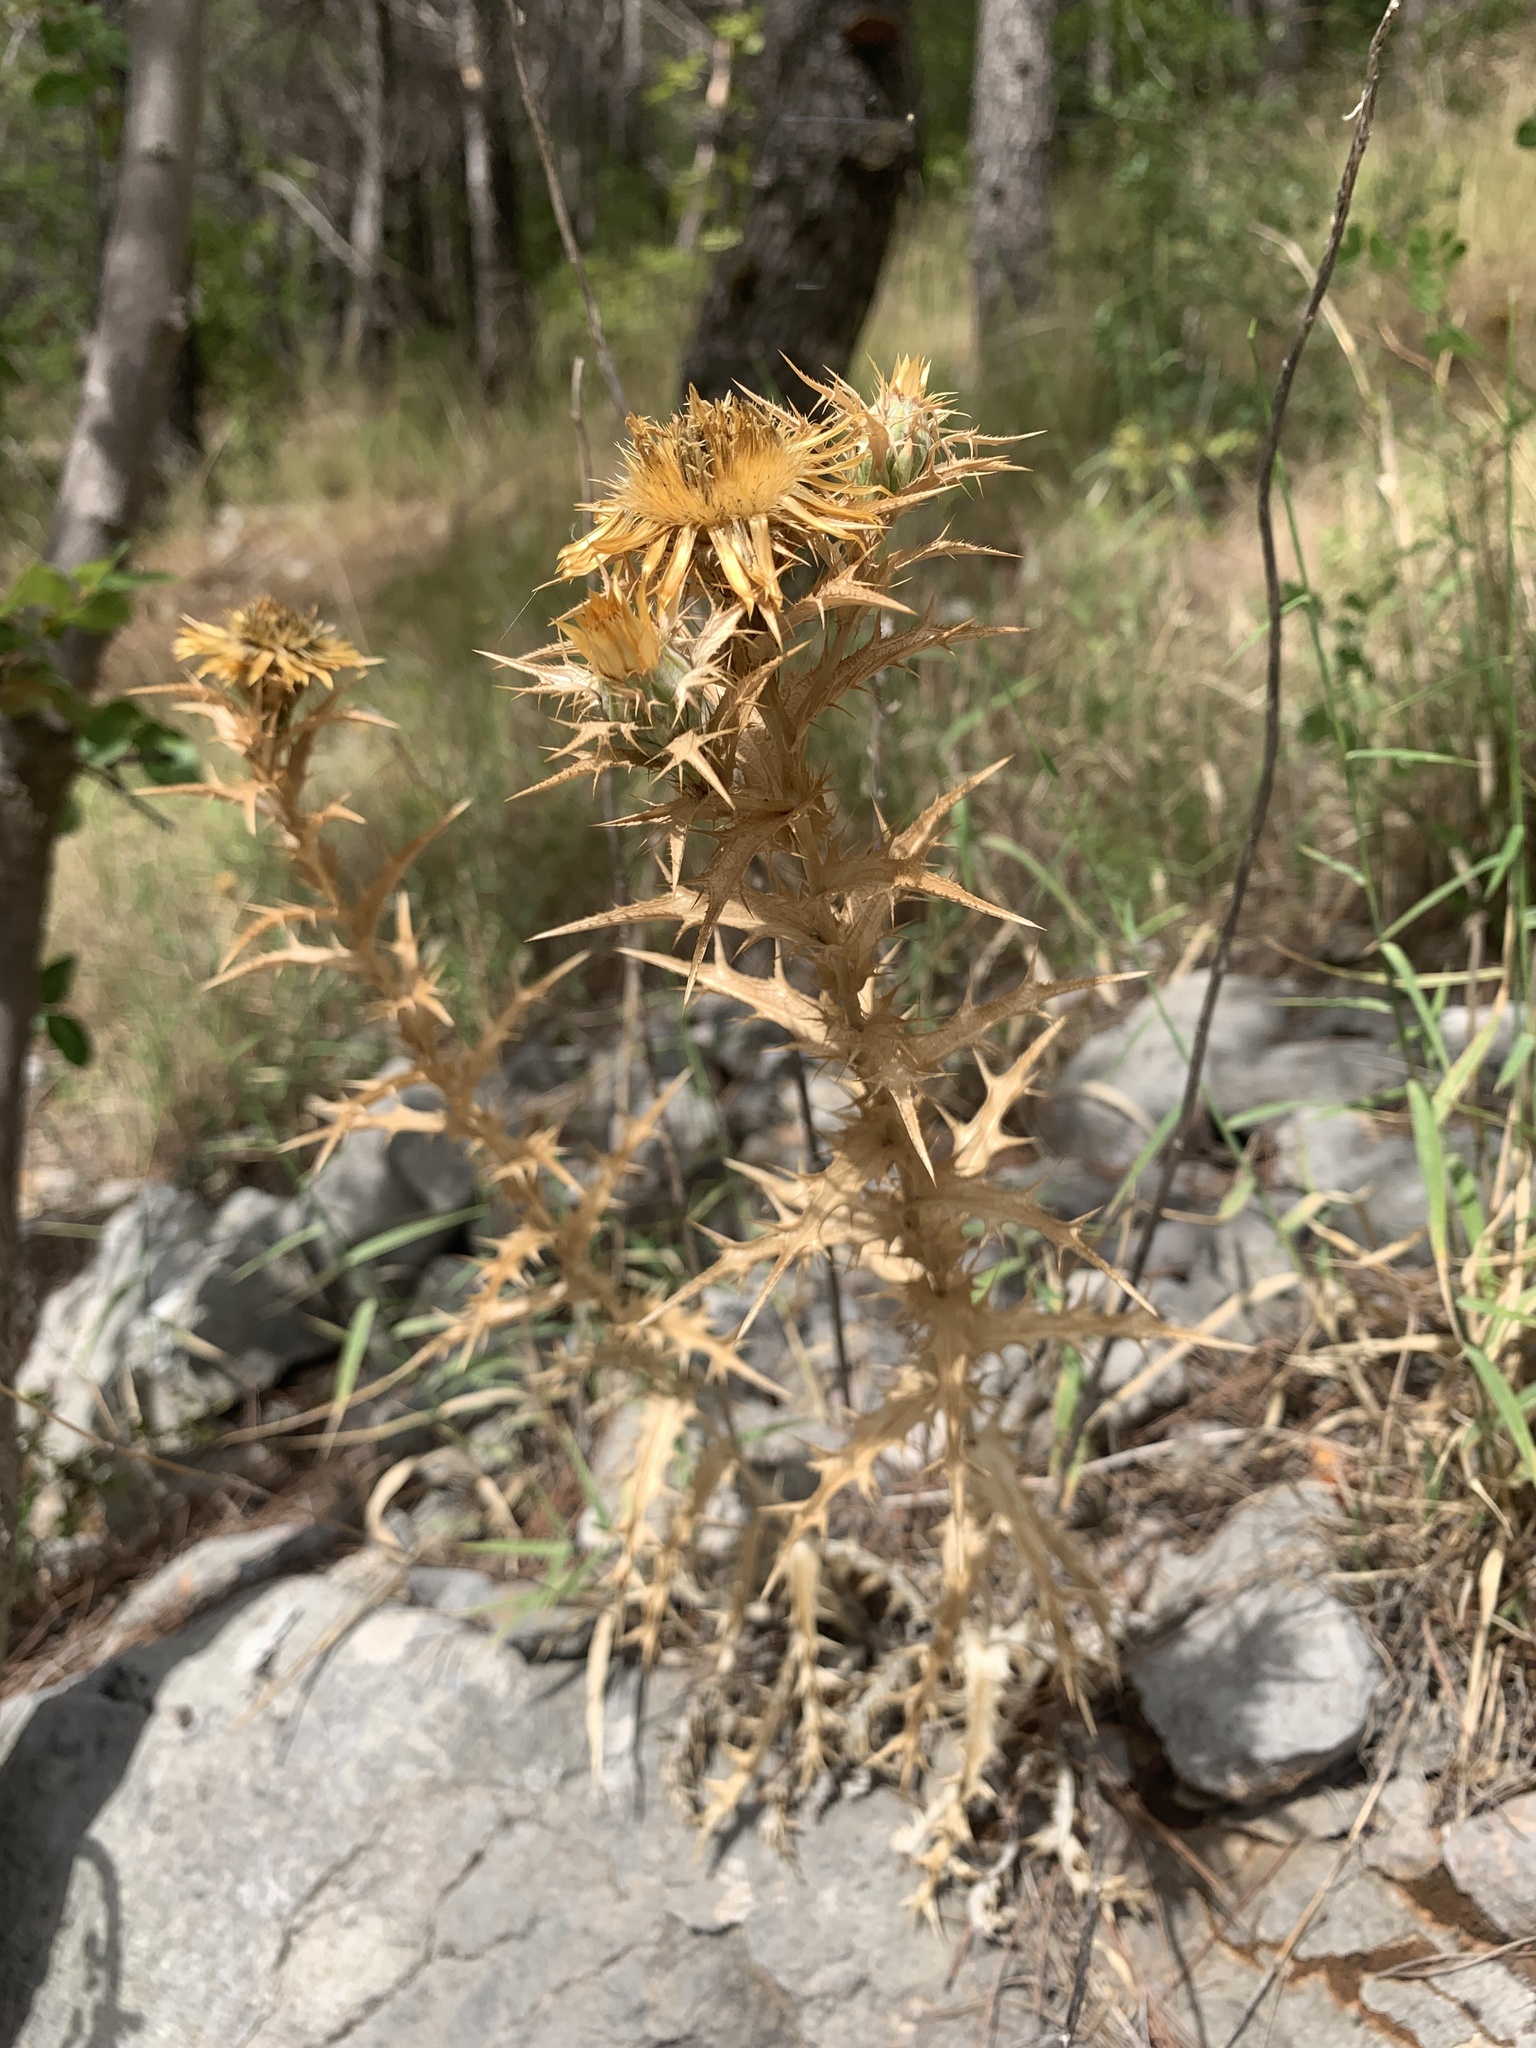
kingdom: Plantae
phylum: Tracheophyta
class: Magnoliopsida
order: Asterales
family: Asteraceae
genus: Carlina
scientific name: Carlina corymbosa
